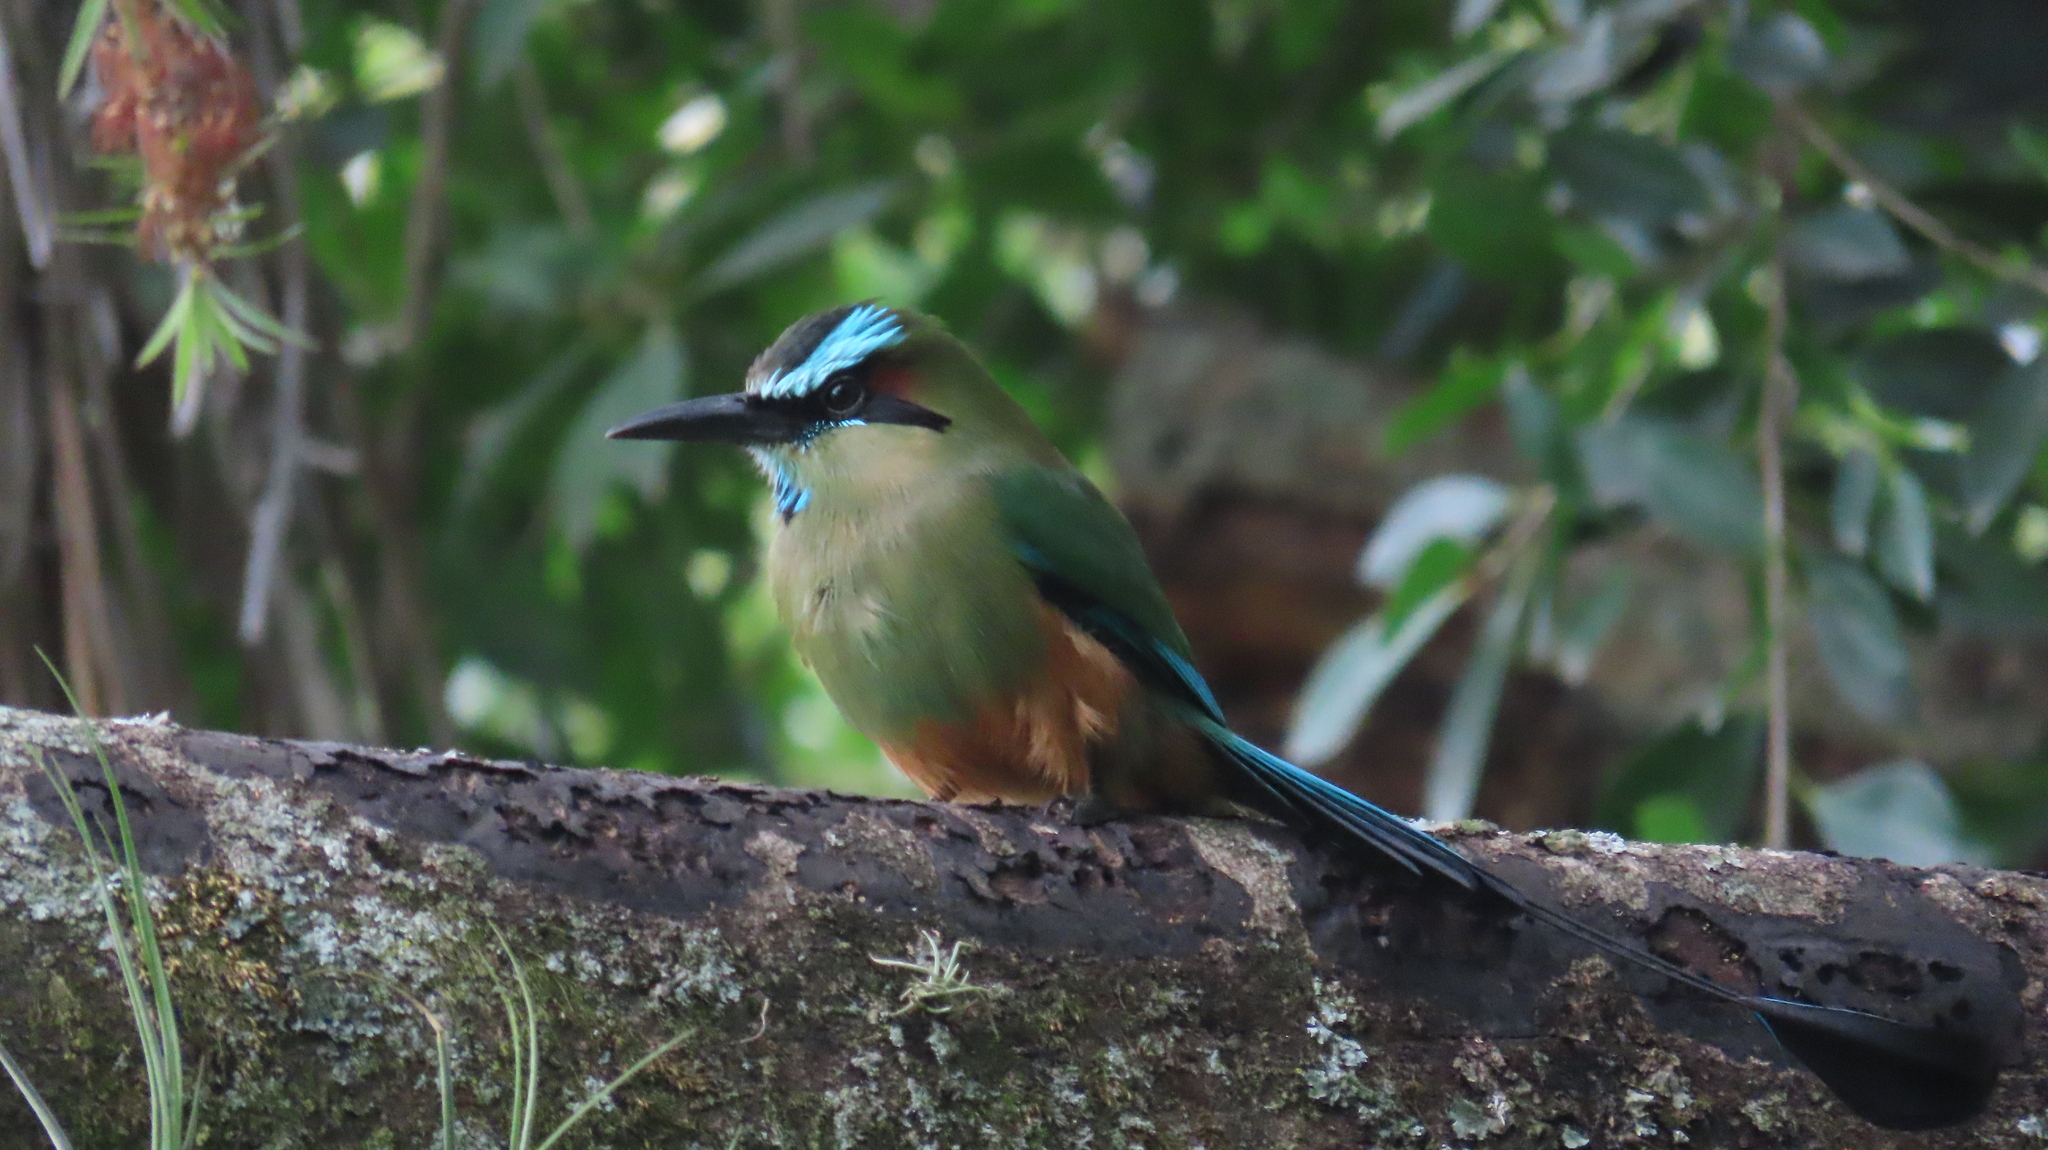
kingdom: Animalia
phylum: Chordata
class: Aves
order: Coraciiformes
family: Momotidae
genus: Eumomota
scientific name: Eumomota superciliosa
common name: Turquoise-browed motmot
